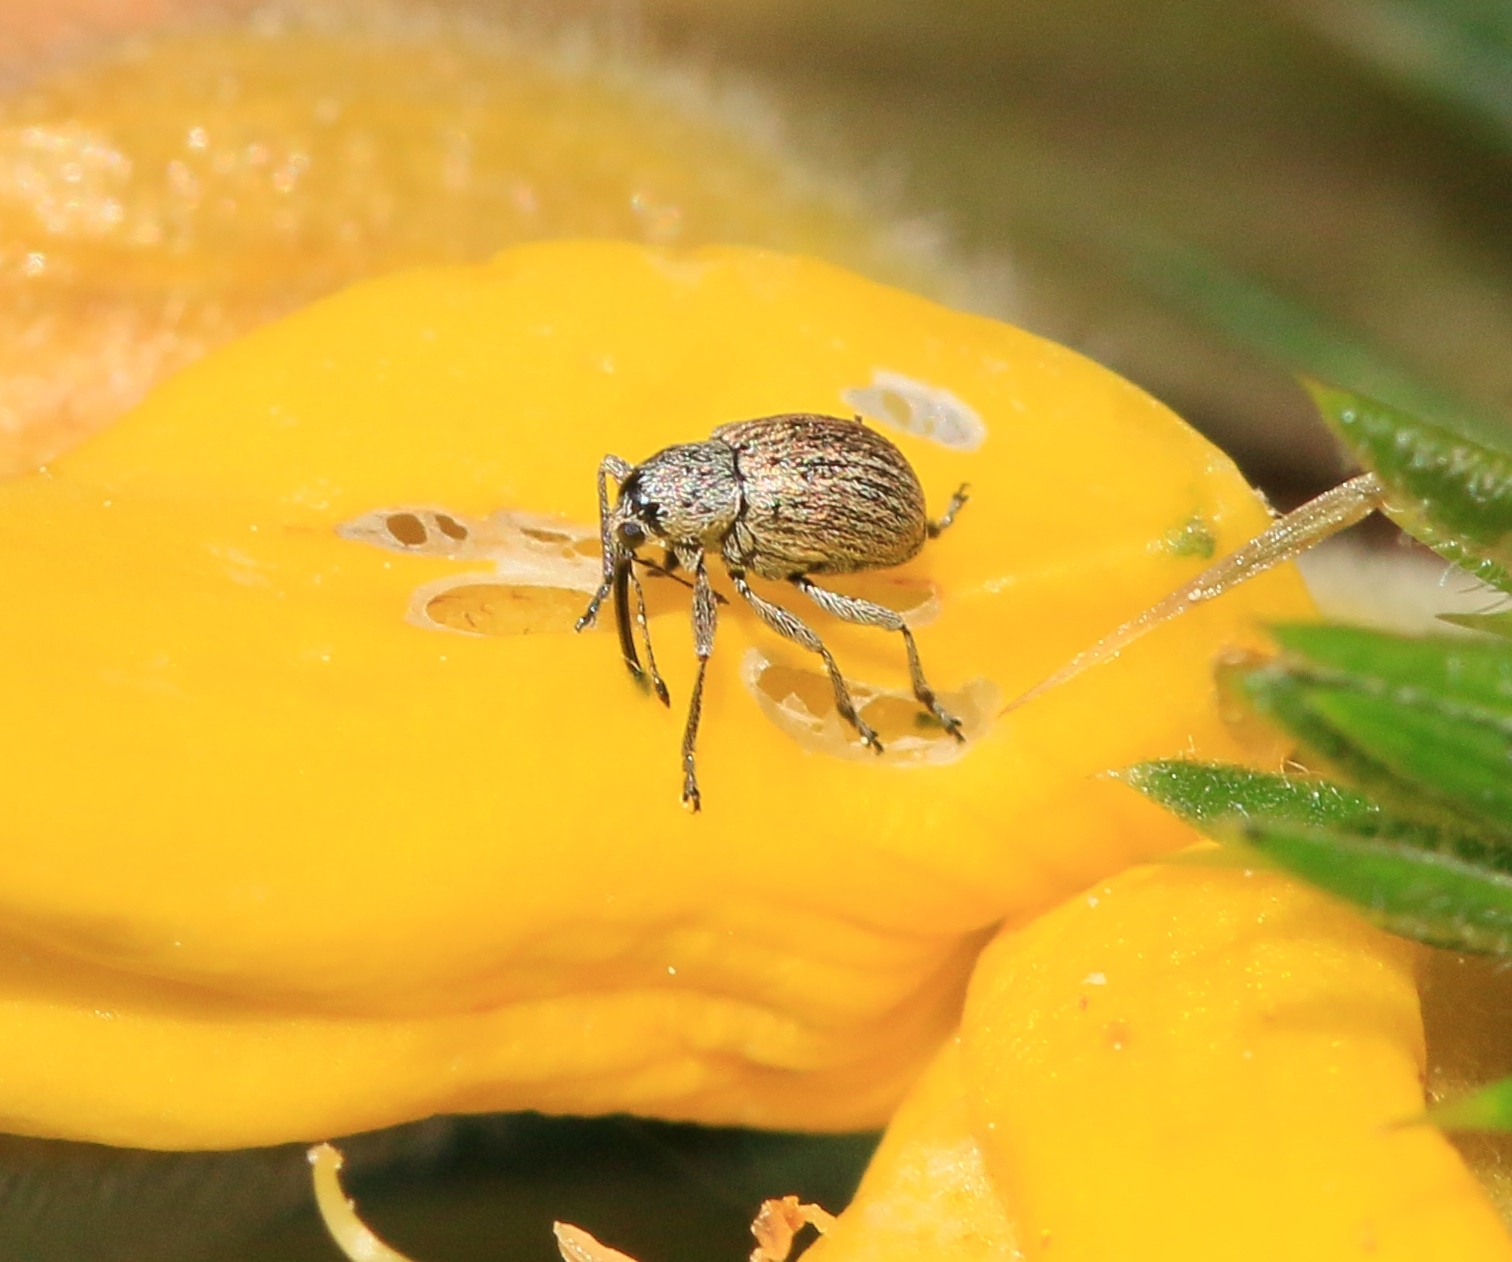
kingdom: Animalia
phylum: Arthropoda
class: Insecta
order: Coleoptera
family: Brentidae
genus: Exapion
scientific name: Exapion ulicis
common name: Gorse seed weevil
